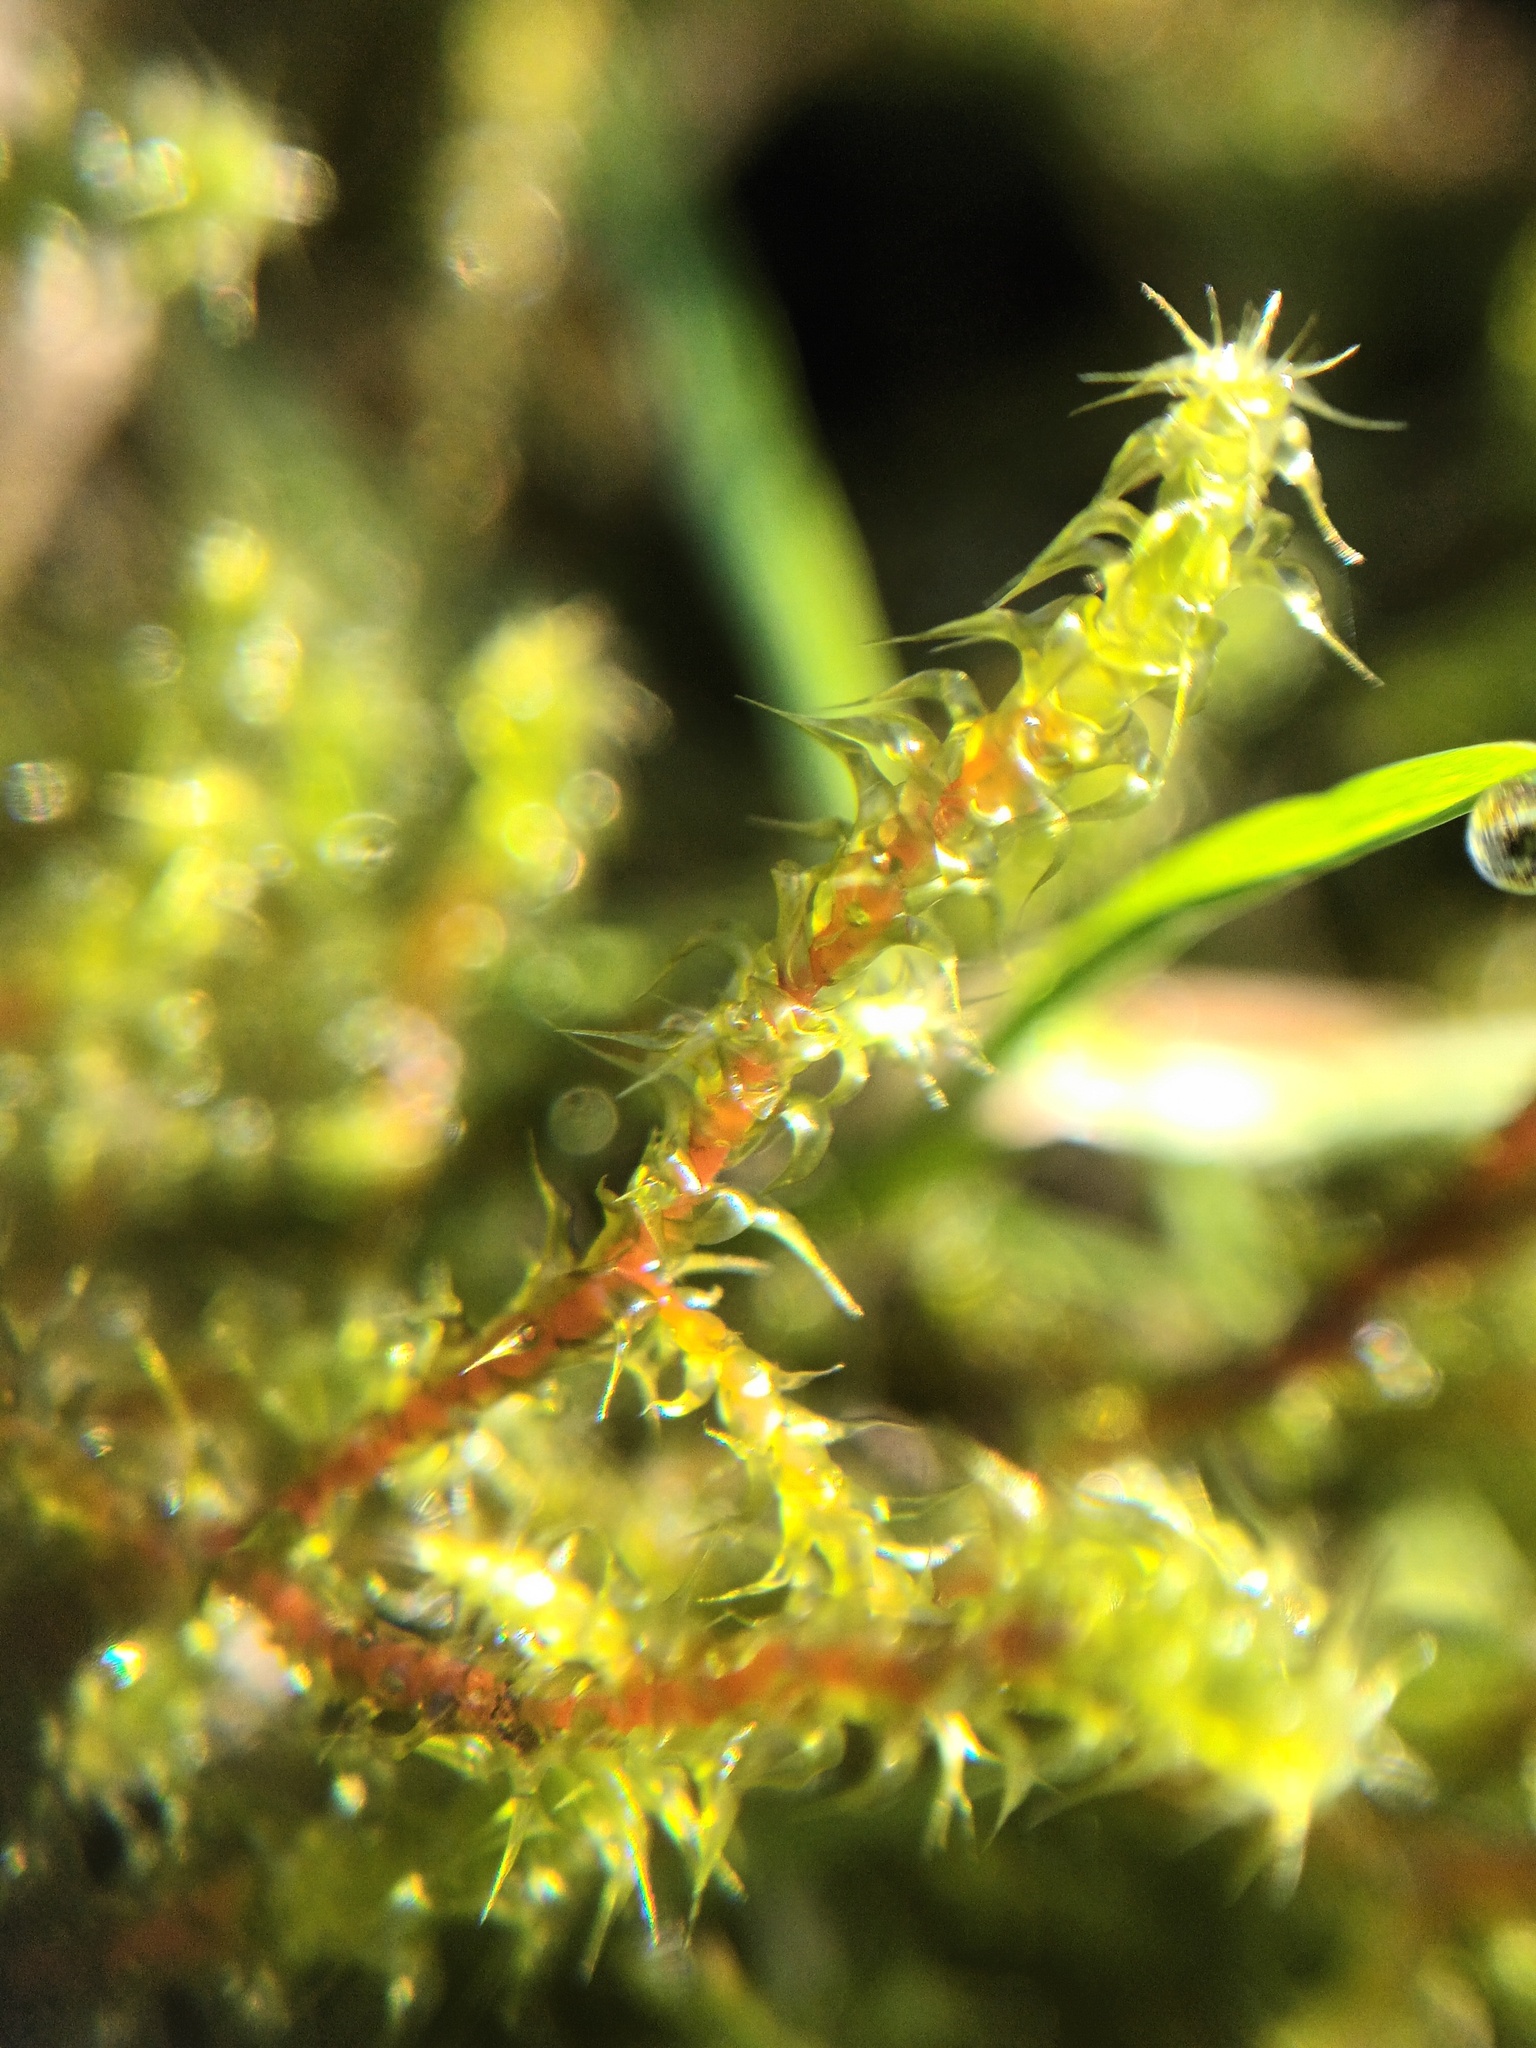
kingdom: Plantae
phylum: Bryophyta
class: Bryopsida
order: Hypnales
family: Hylocomiaceae
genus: Rhytidiadelphus
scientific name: Rhytidiadelphus squarrosus
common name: Springy turf-moss
